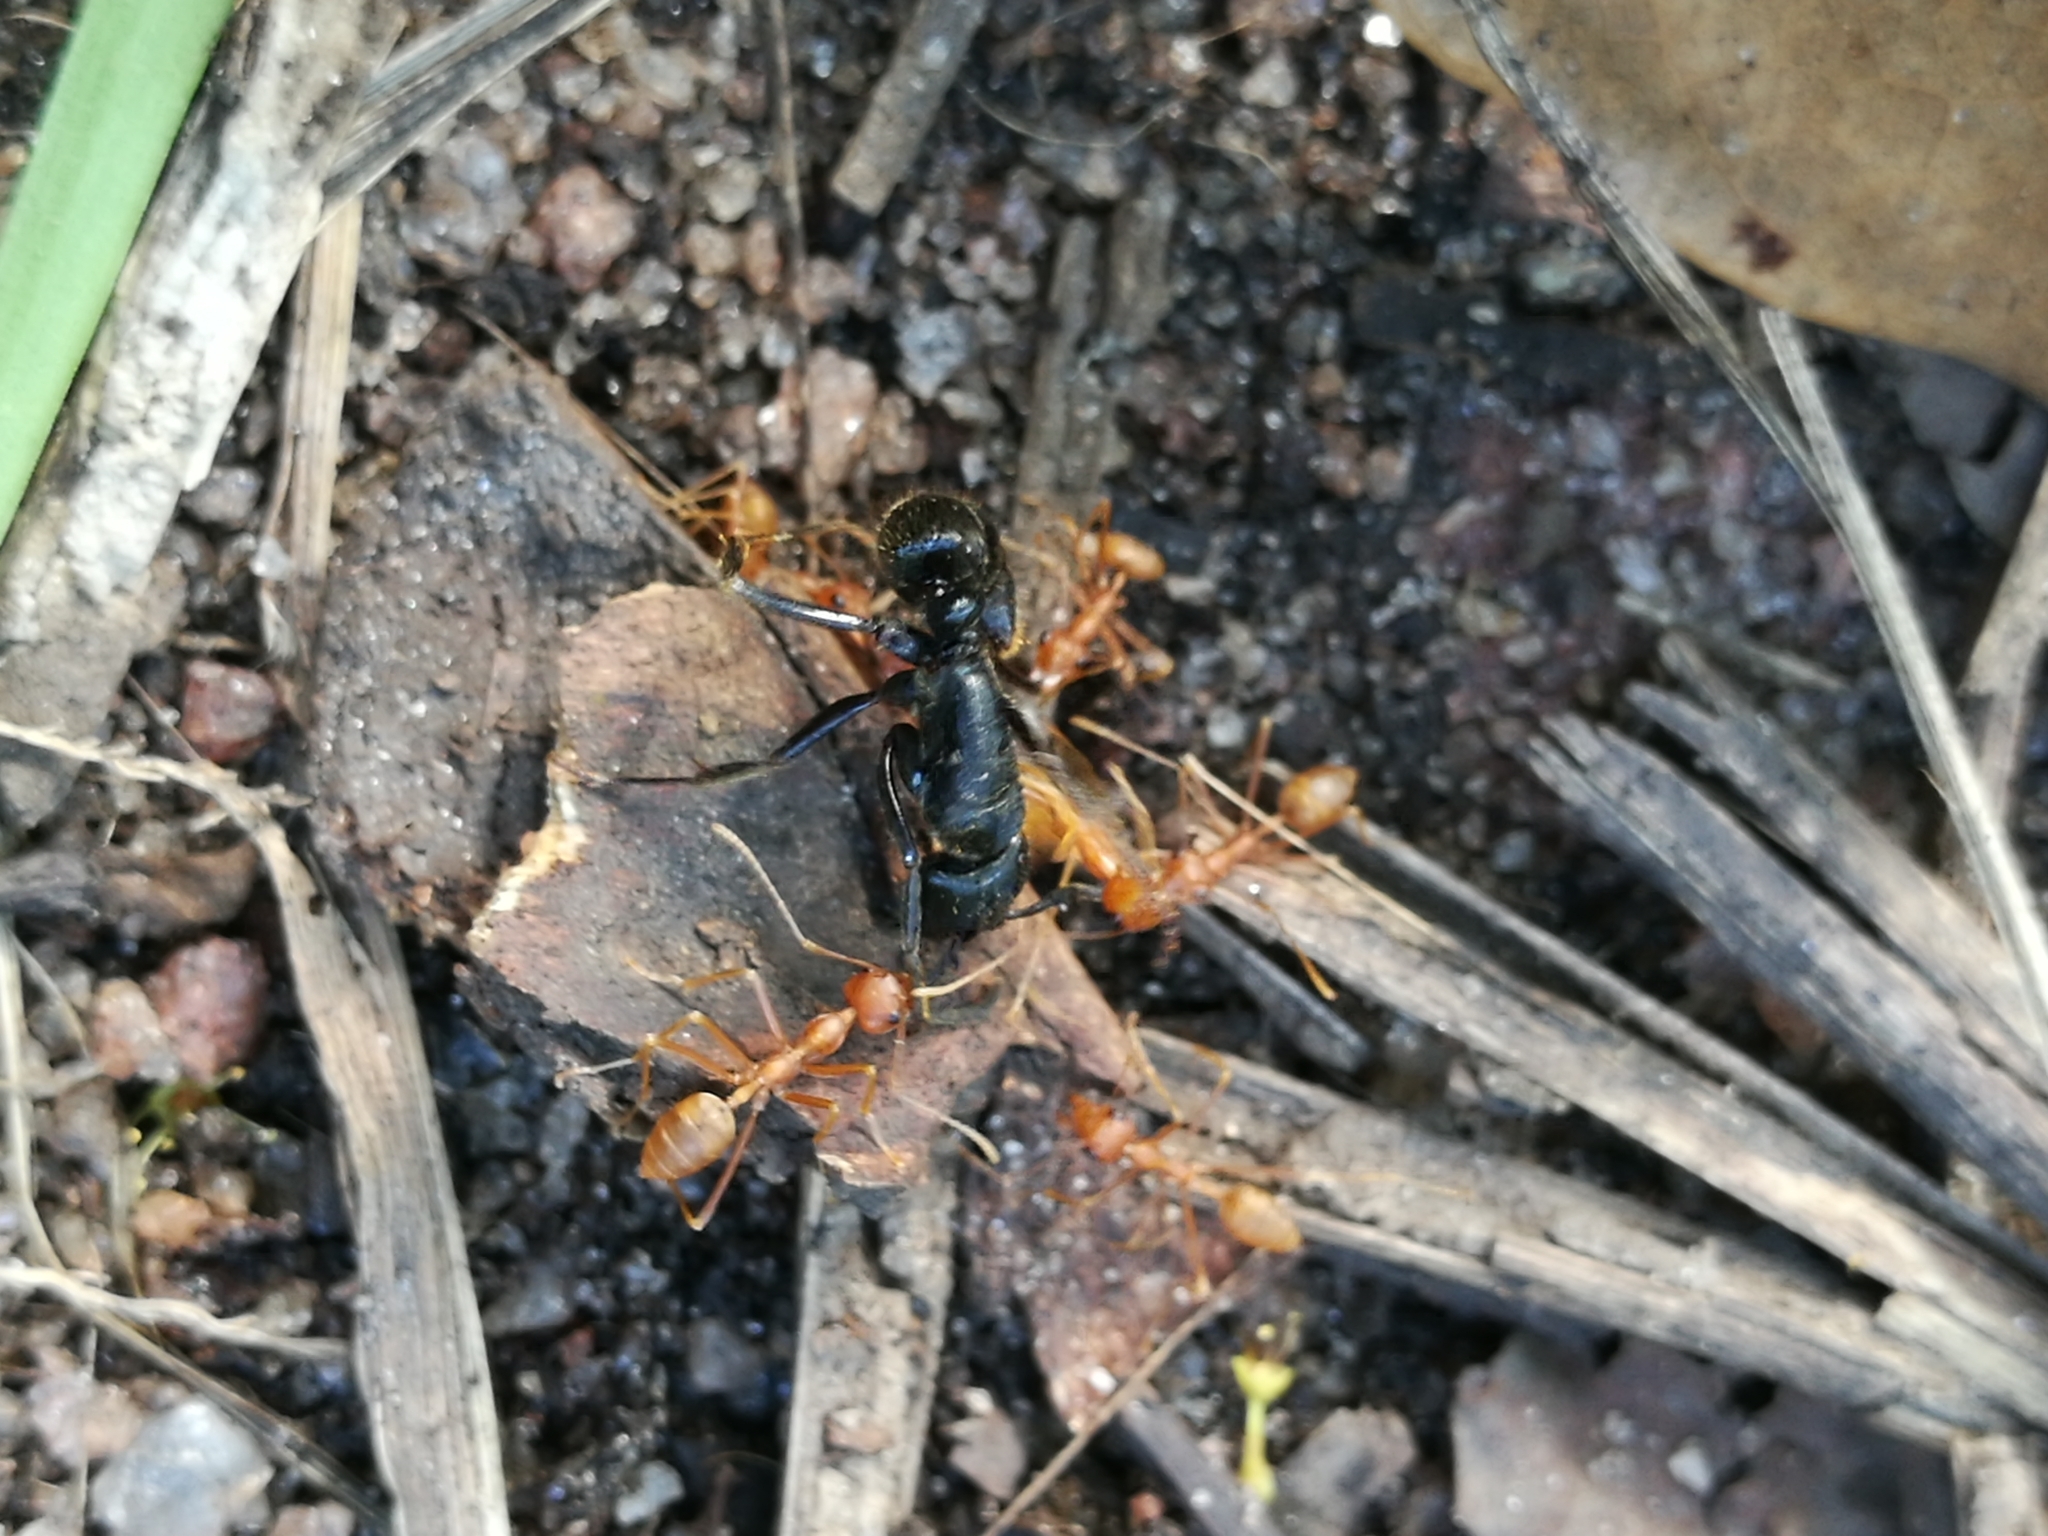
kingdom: Animalia
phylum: Arthropoda
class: Insecta
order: Hymenoptera
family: Formicidae
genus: Oecophylla
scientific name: Oecophylla longinoda
